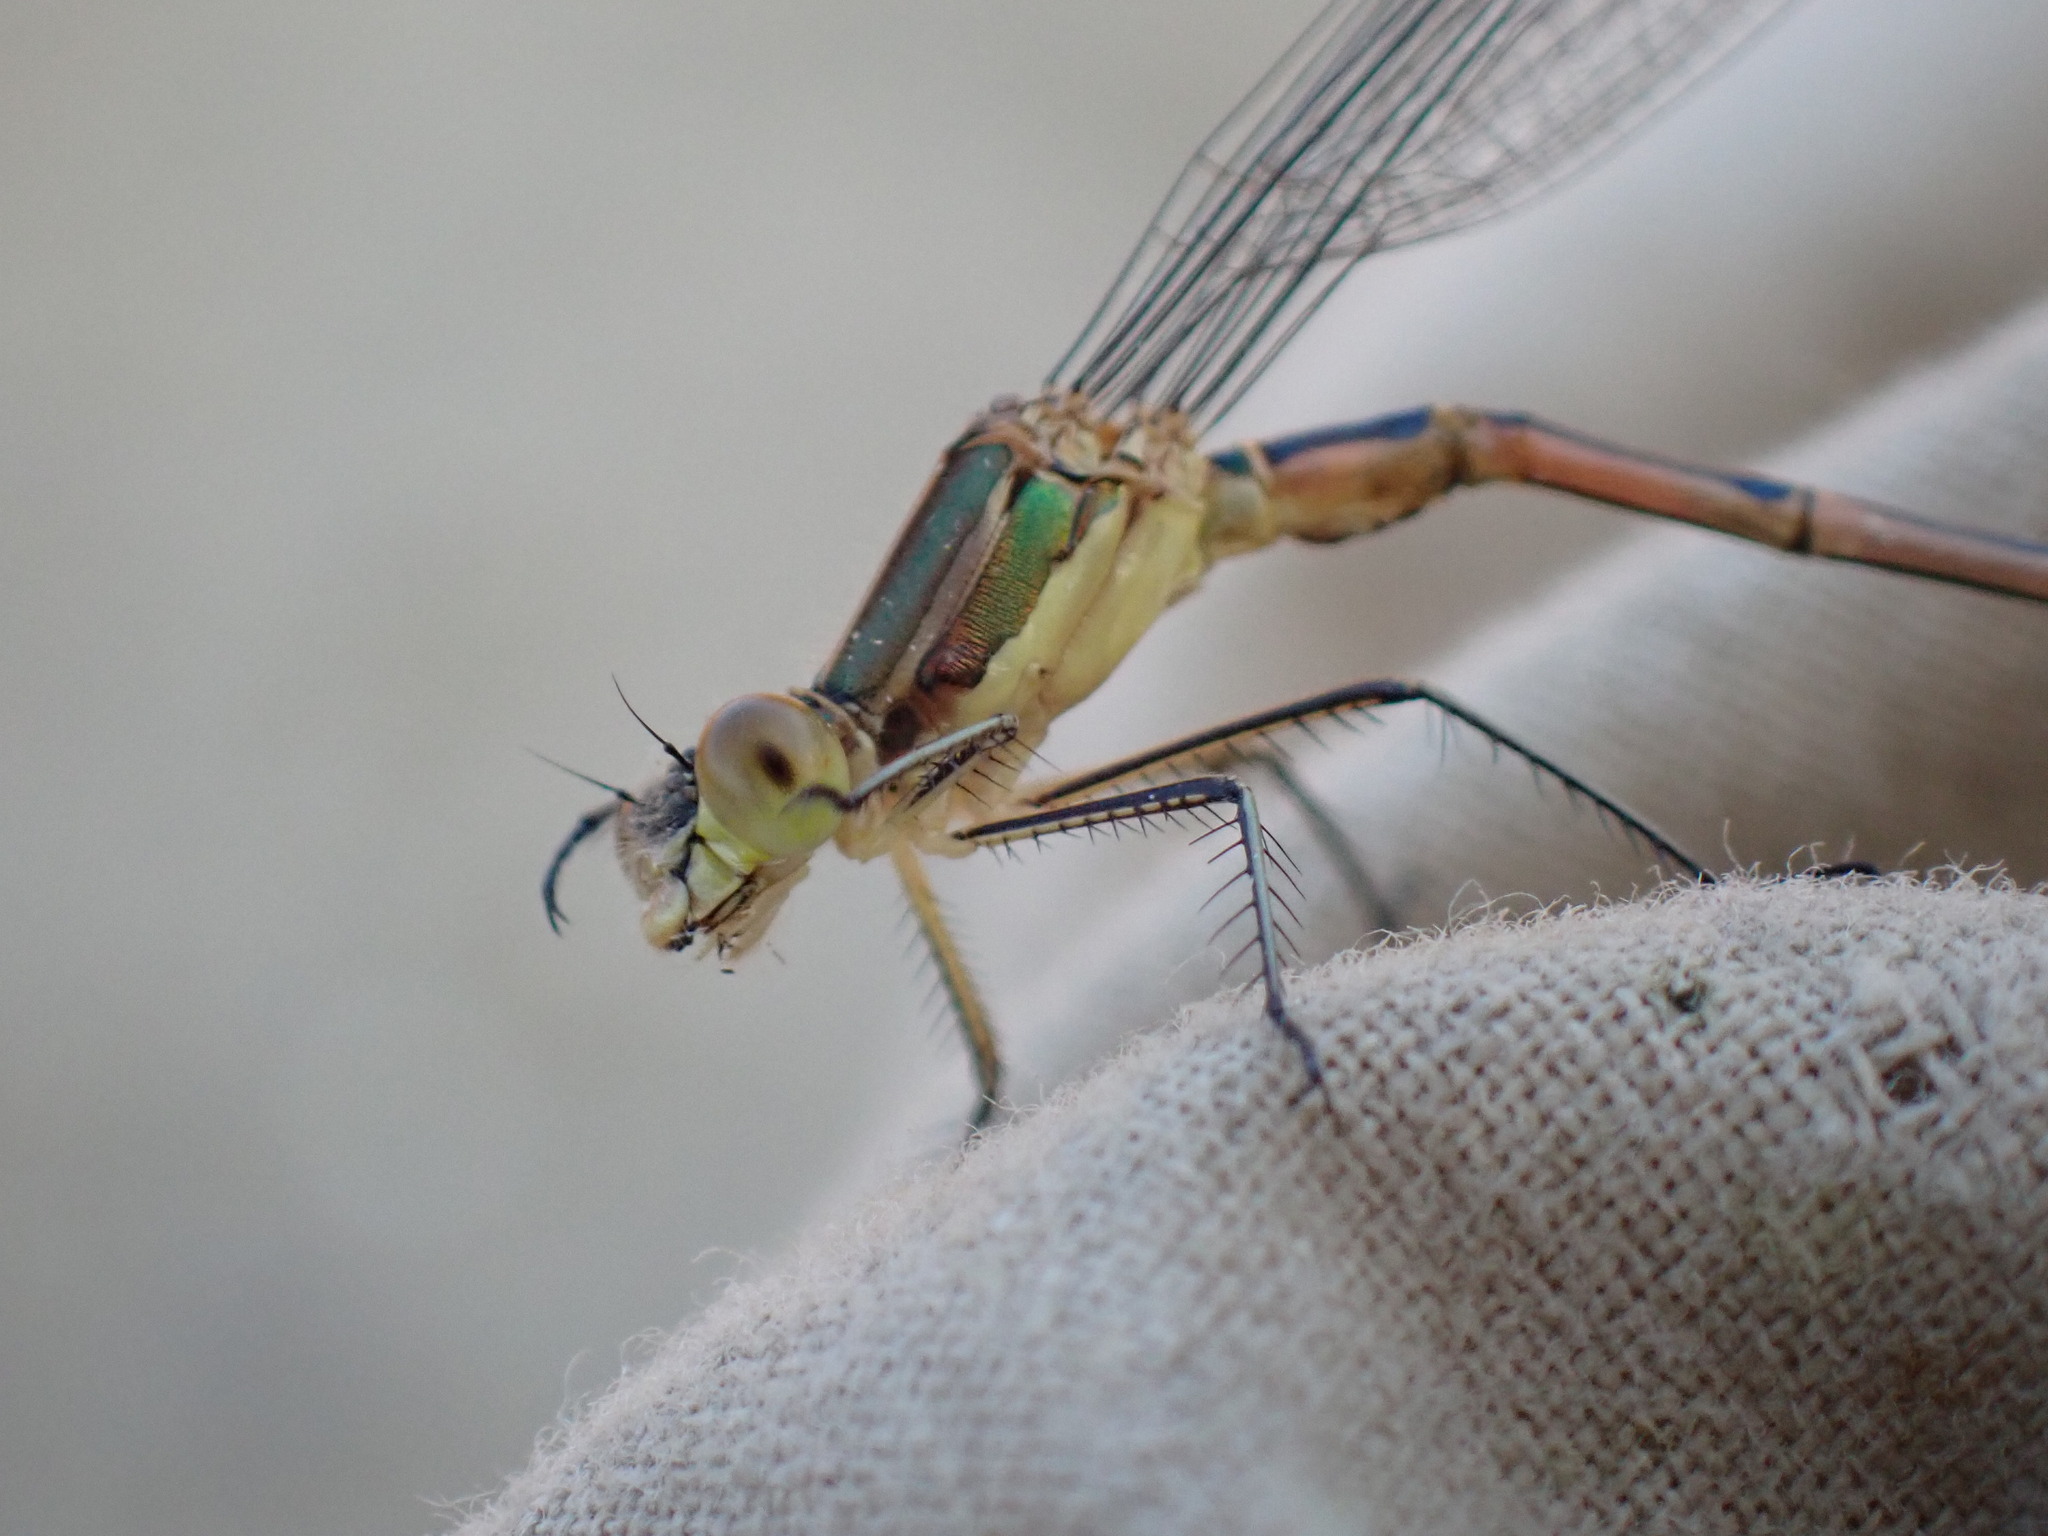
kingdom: Animalia
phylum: Arthropoda
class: Insecta
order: Odonata
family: Lestidae
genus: Lestes
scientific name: Lestes unguiculatus
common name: Lyre-tipped spreadwing
